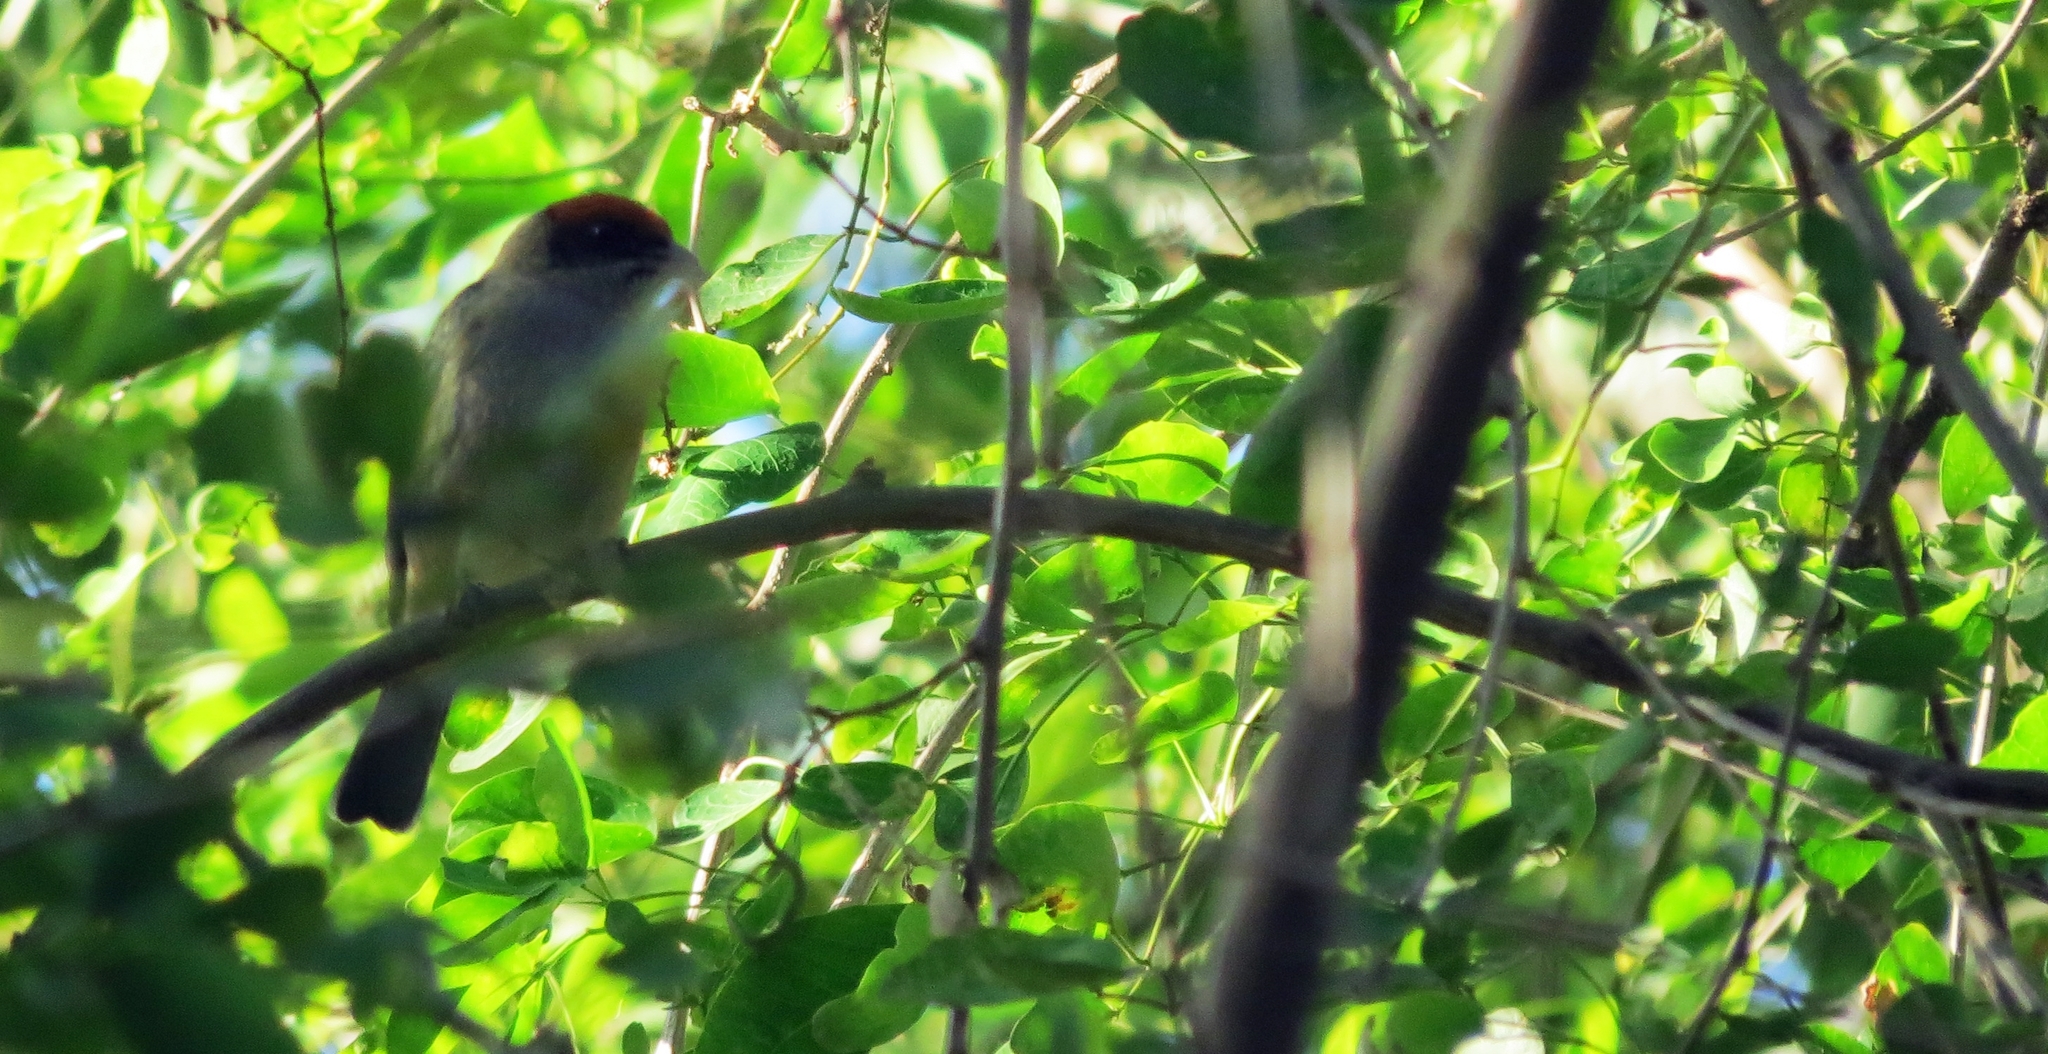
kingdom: Animalia
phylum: Chordata
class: Aves
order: Passeriformes
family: Thraupidae
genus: Stilpnia
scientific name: Stilpnia vitriolina
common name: Scrub tanager
